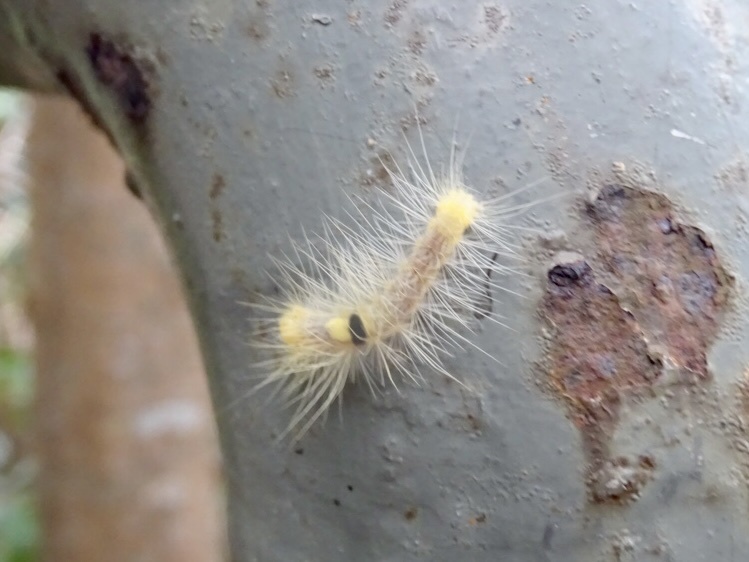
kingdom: Animalia
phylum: Arthropoda
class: Insecta
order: Lepidoptera
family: Erebidae
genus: Calliteara
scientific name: Calliteara grotei
